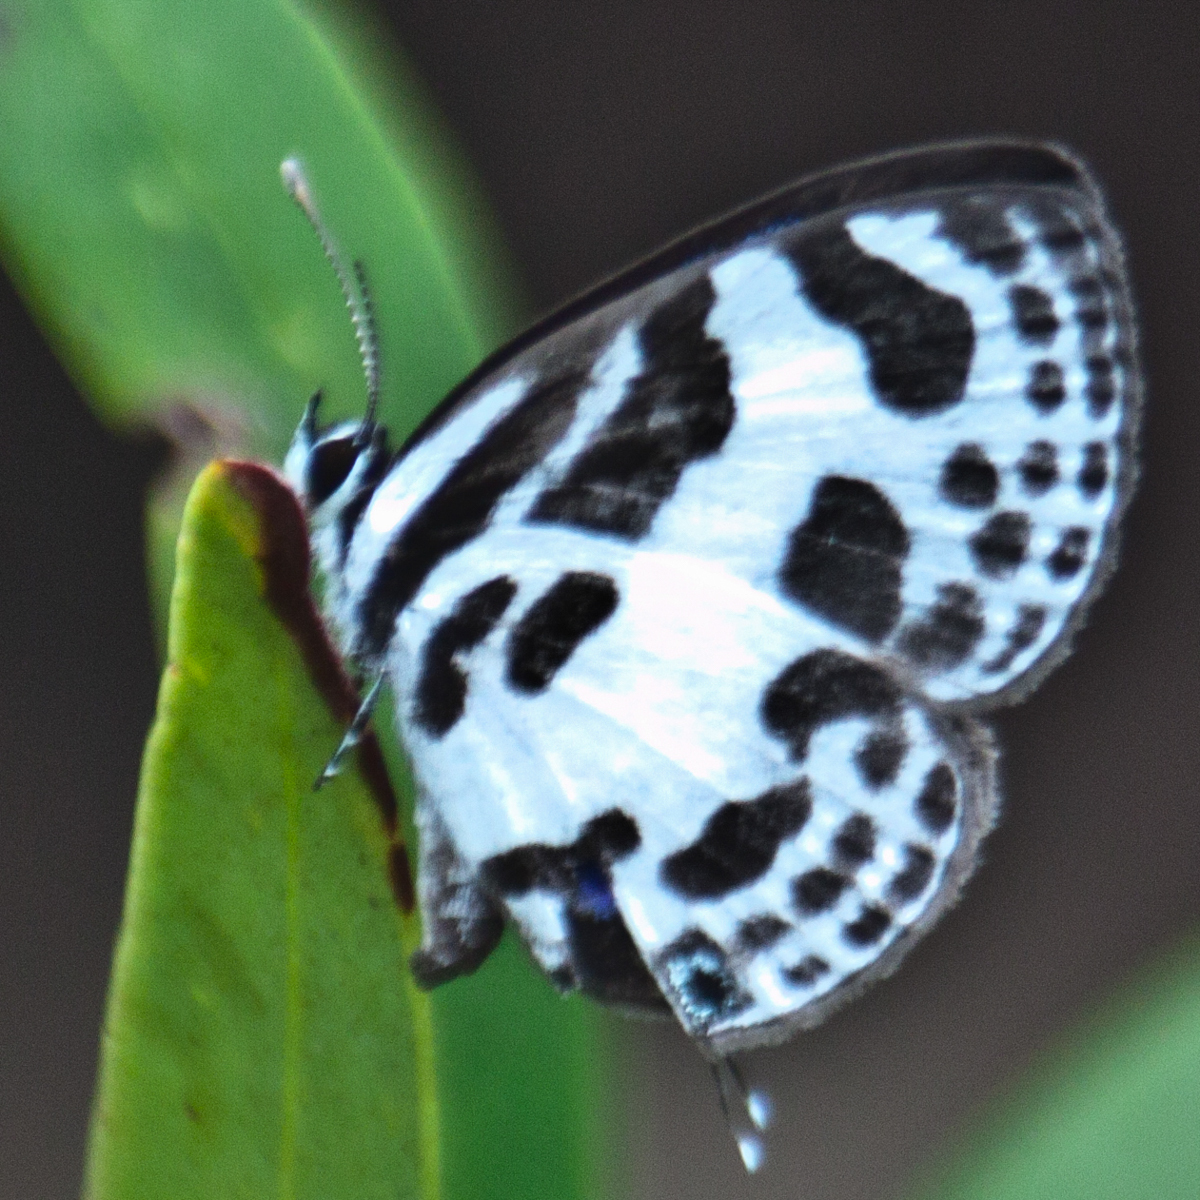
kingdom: Animalia
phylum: Arthropoda
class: Insecta
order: Lepidoptera
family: Lycaenidae
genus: Discolampa
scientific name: Discolampa ethion
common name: Banded blue pierrot
